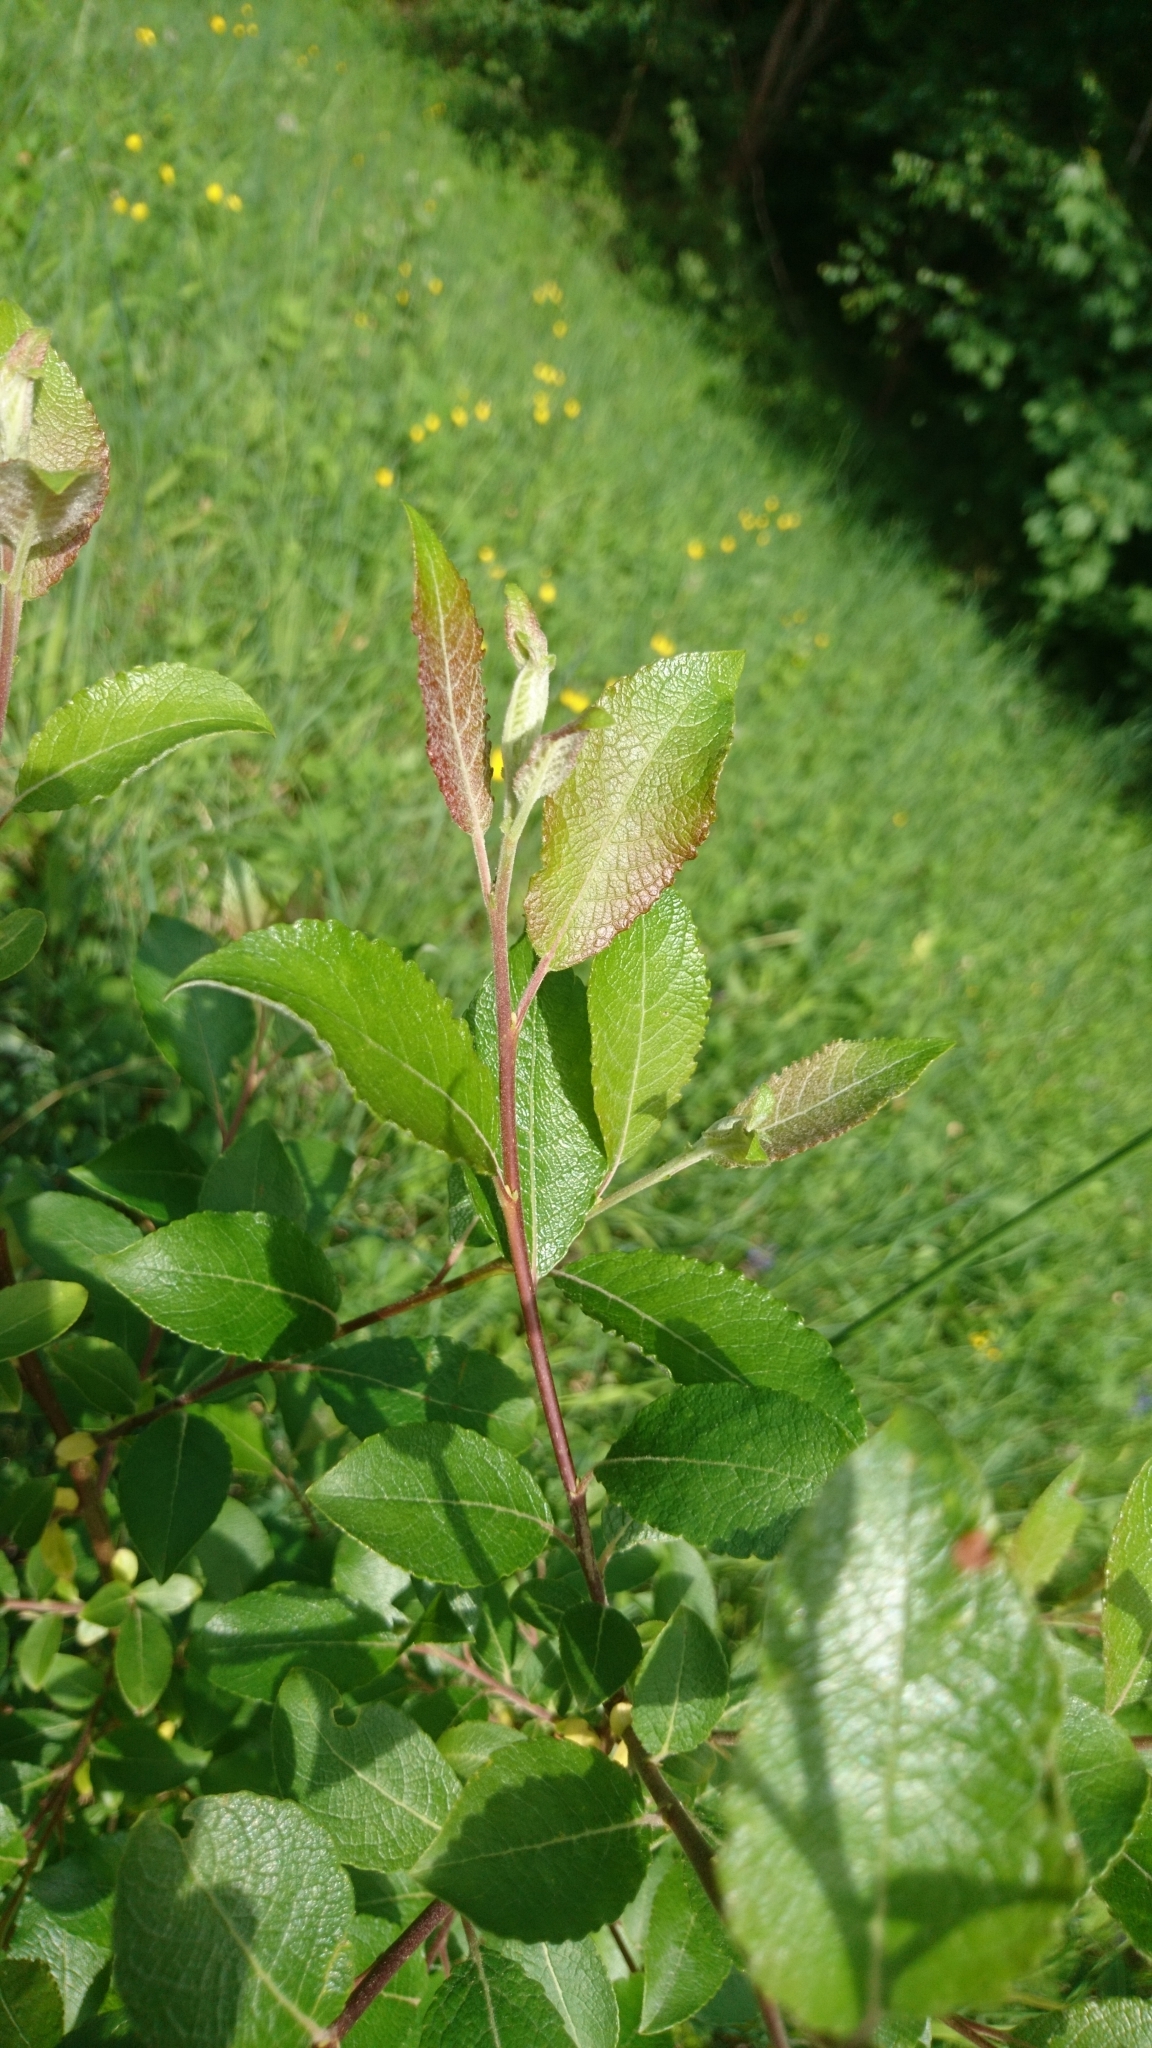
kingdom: Plantae
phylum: Tracheophyta
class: Magnoliopsida
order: Malpighiales
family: Salicaceae
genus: Salix
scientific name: Salix caprea
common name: Goat willow
